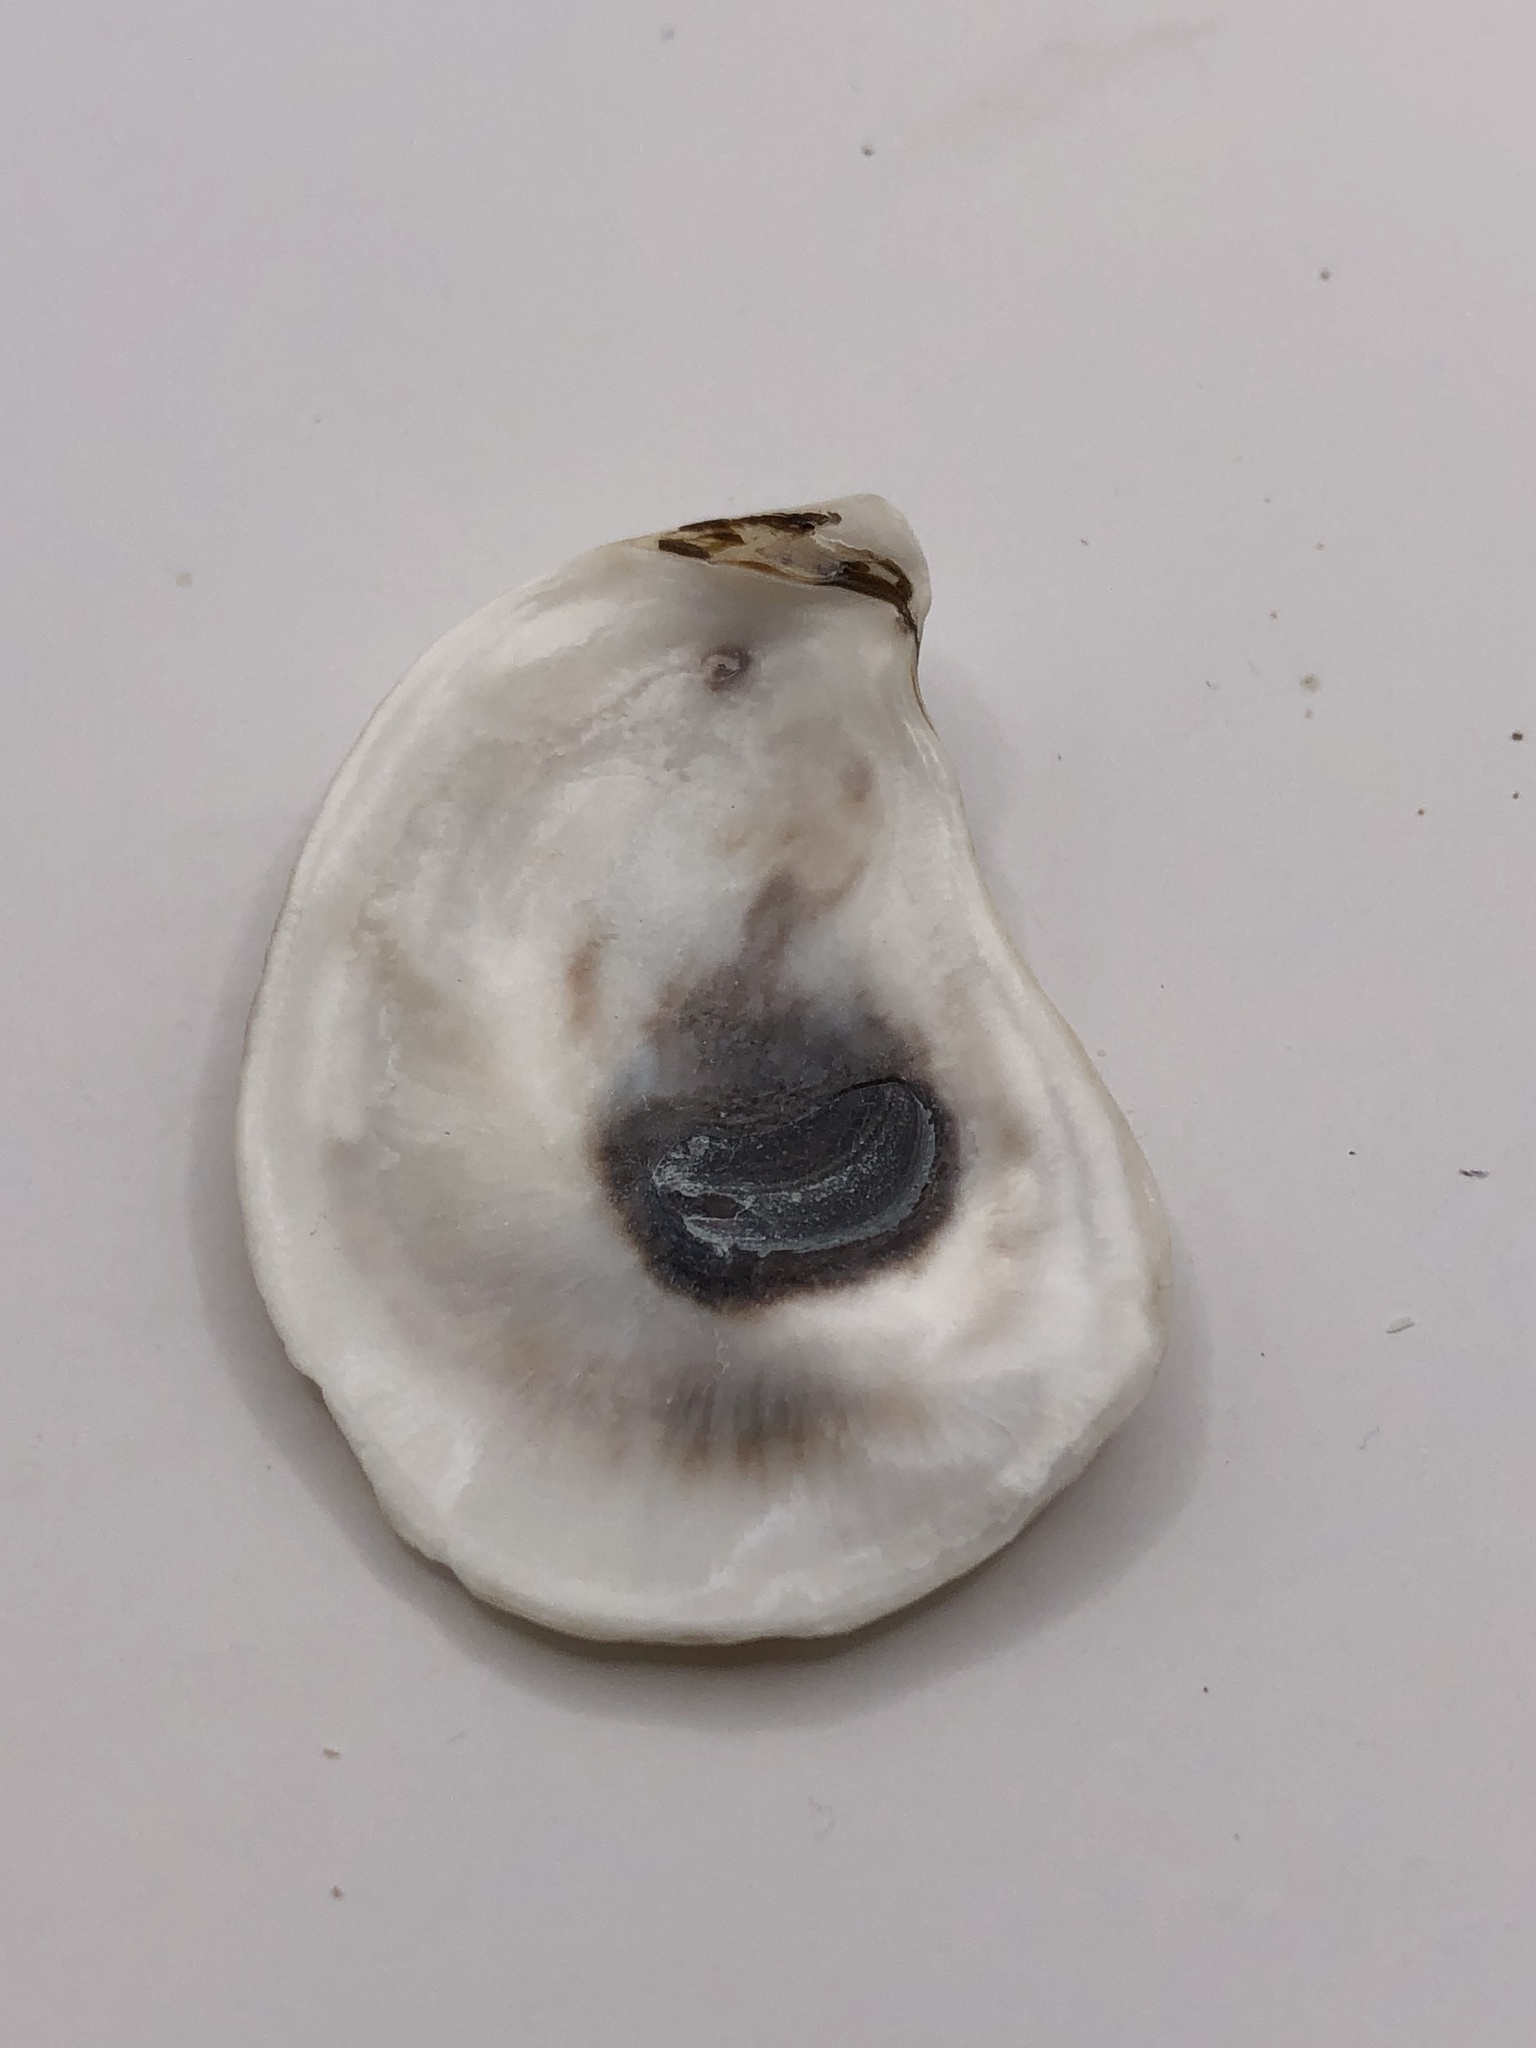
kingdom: Animalia
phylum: Mollusca
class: Bivalvia
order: Ostreida
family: Ostreidae
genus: Crassostrea
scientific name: Crassostrea virginica
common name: American oyster
